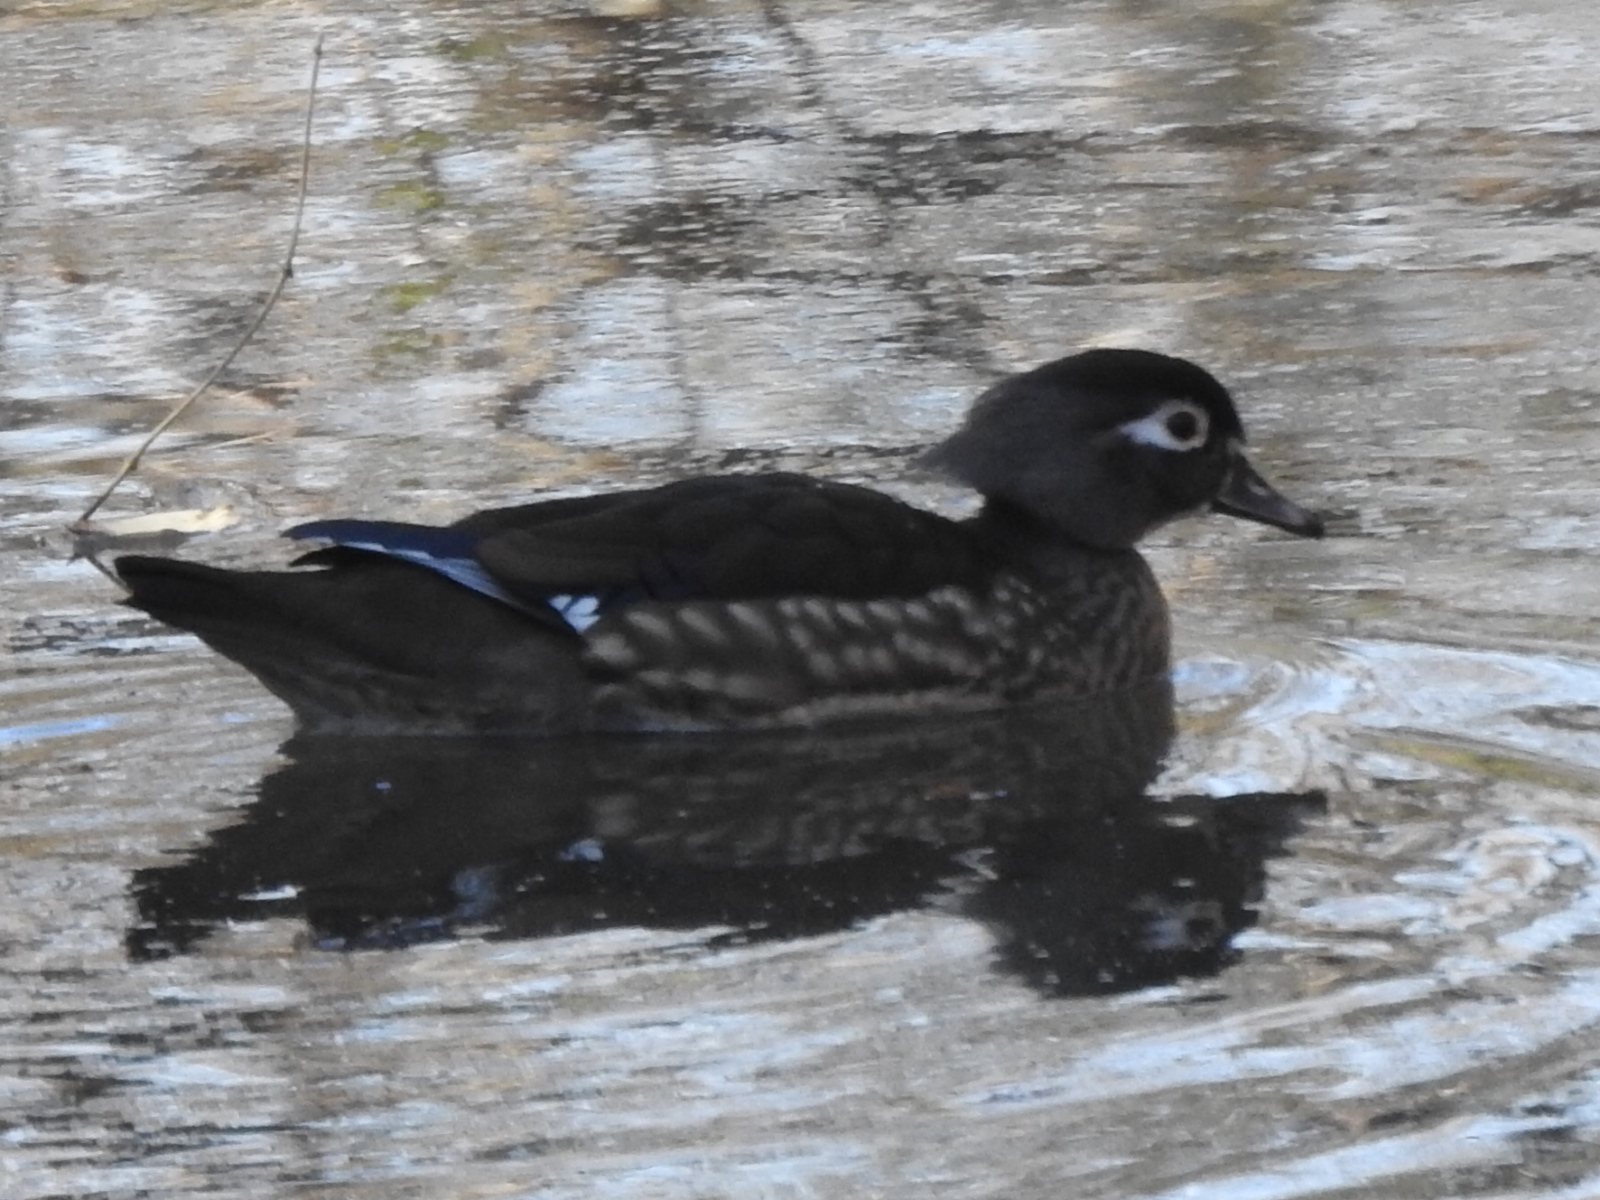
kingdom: Animalia
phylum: Chordata
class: Aves
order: Anseriformes
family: Anatidae
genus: Aix
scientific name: Aix sponsa
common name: Wood duck
